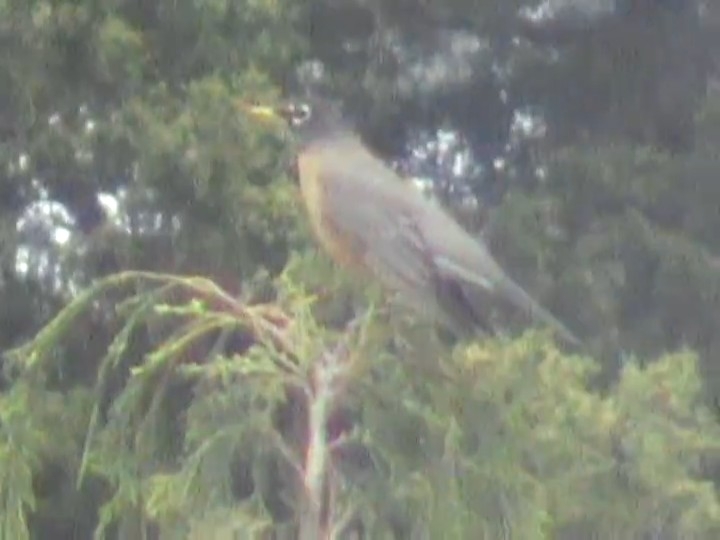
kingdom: Animalia
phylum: Chordata
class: Aves
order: Passeriformes
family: Turdidae
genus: Turdus
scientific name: Turdus migratorius
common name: American robin
